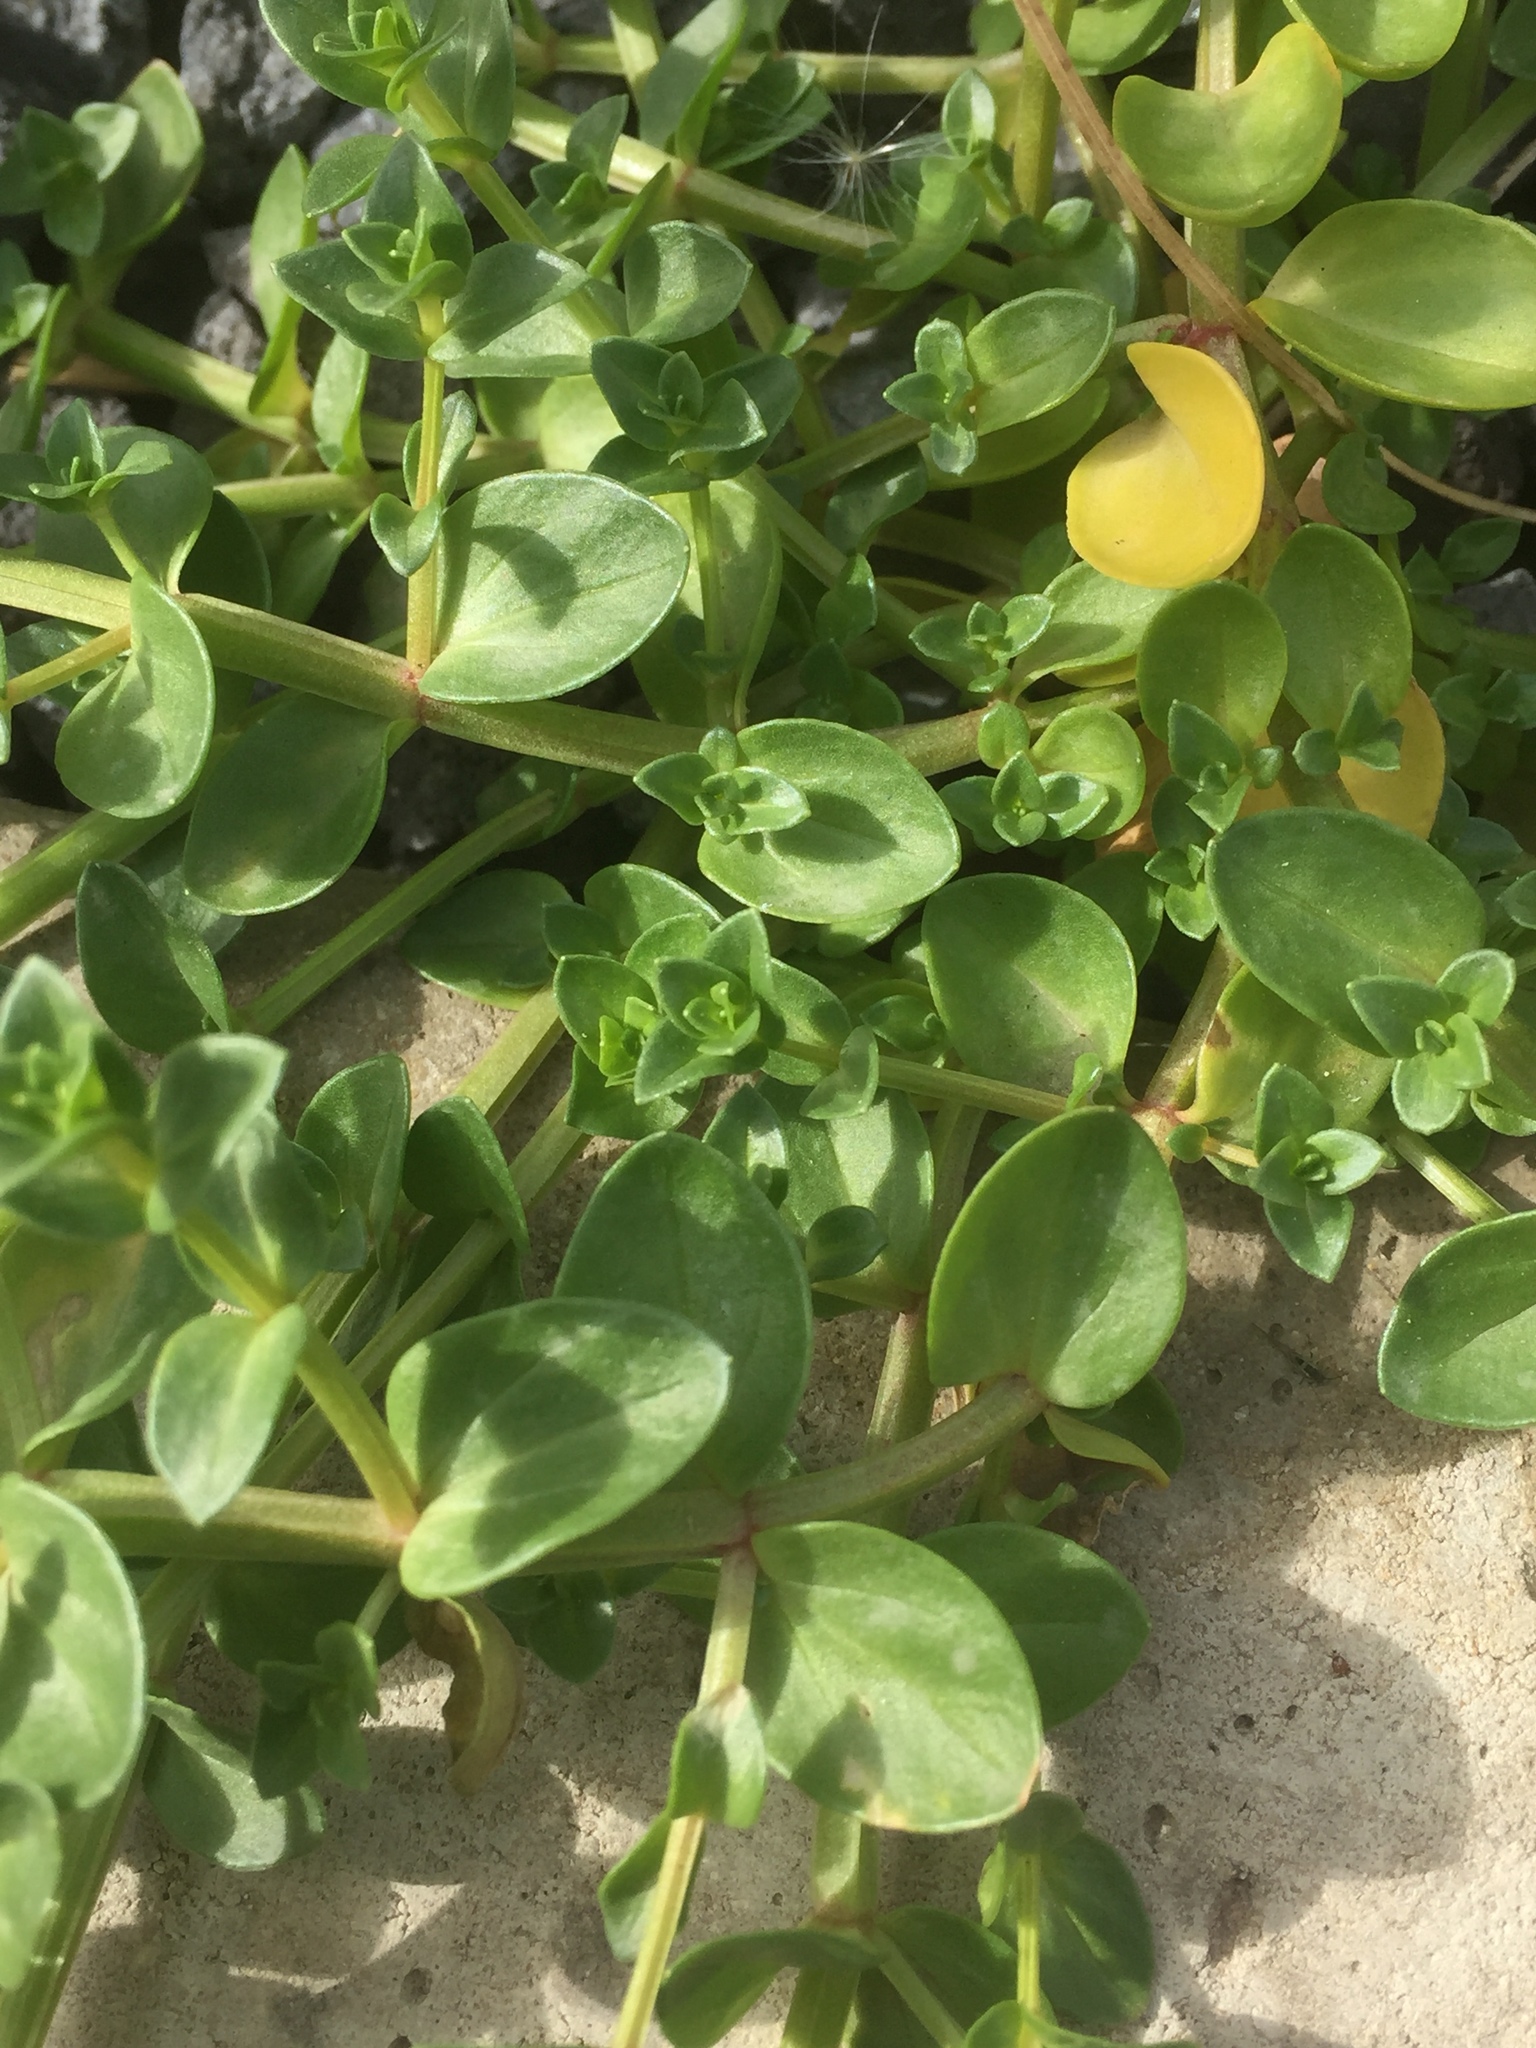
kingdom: Plantae
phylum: Tracheophyta
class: Magnoliopsida
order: Ericales
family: Primulaceae
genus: Lysimachia
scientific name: Lysimachia arvensis
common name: Scarlet pimpernel
